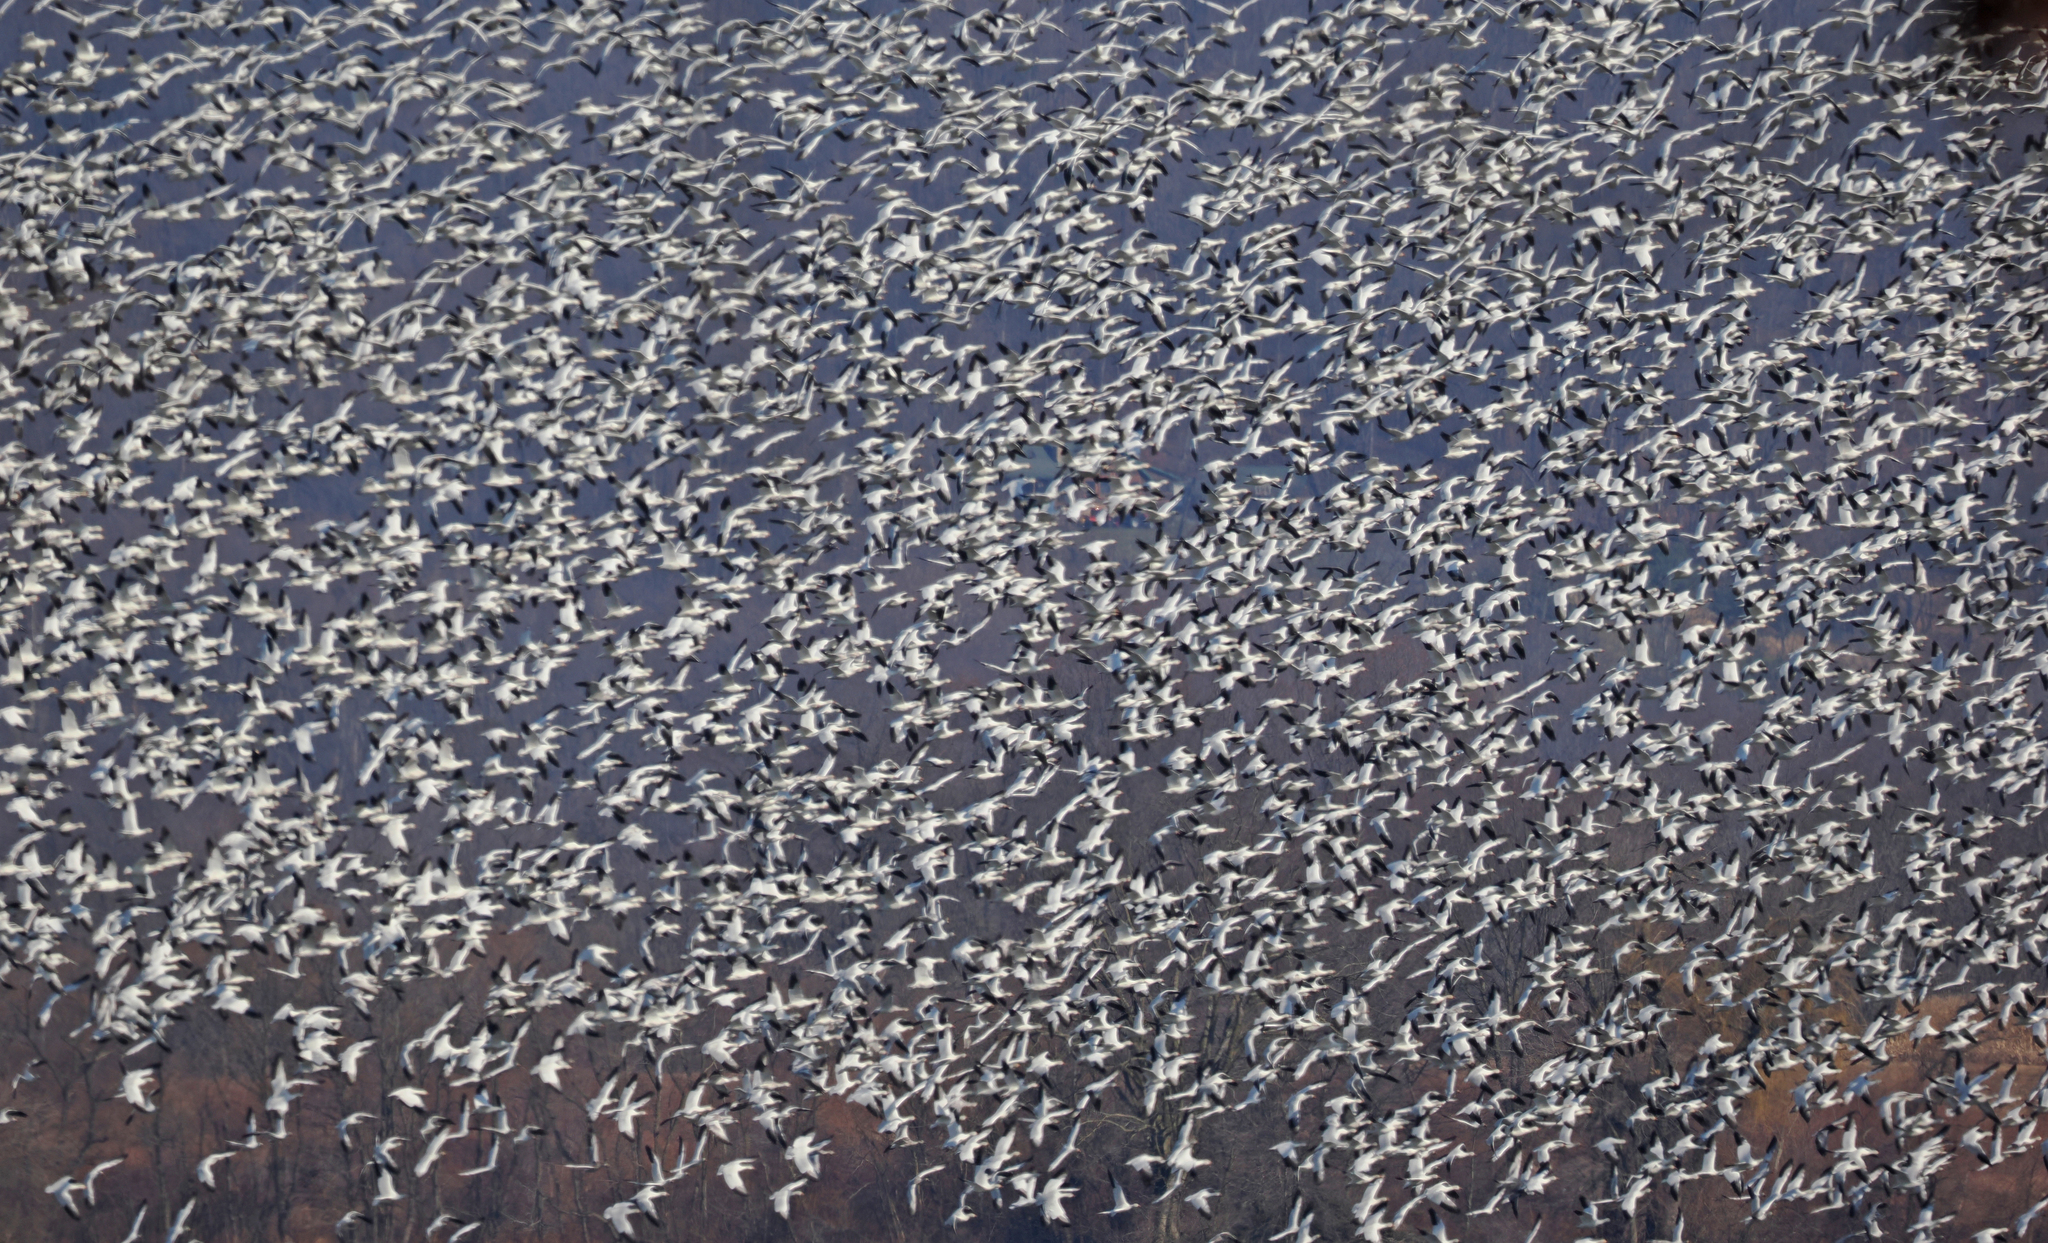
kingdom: Animalia
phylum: Chordata
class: Aves
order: Anseriformes
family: Anatidae
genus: Anser
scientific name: Anser caerulescens
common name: Snow goose
